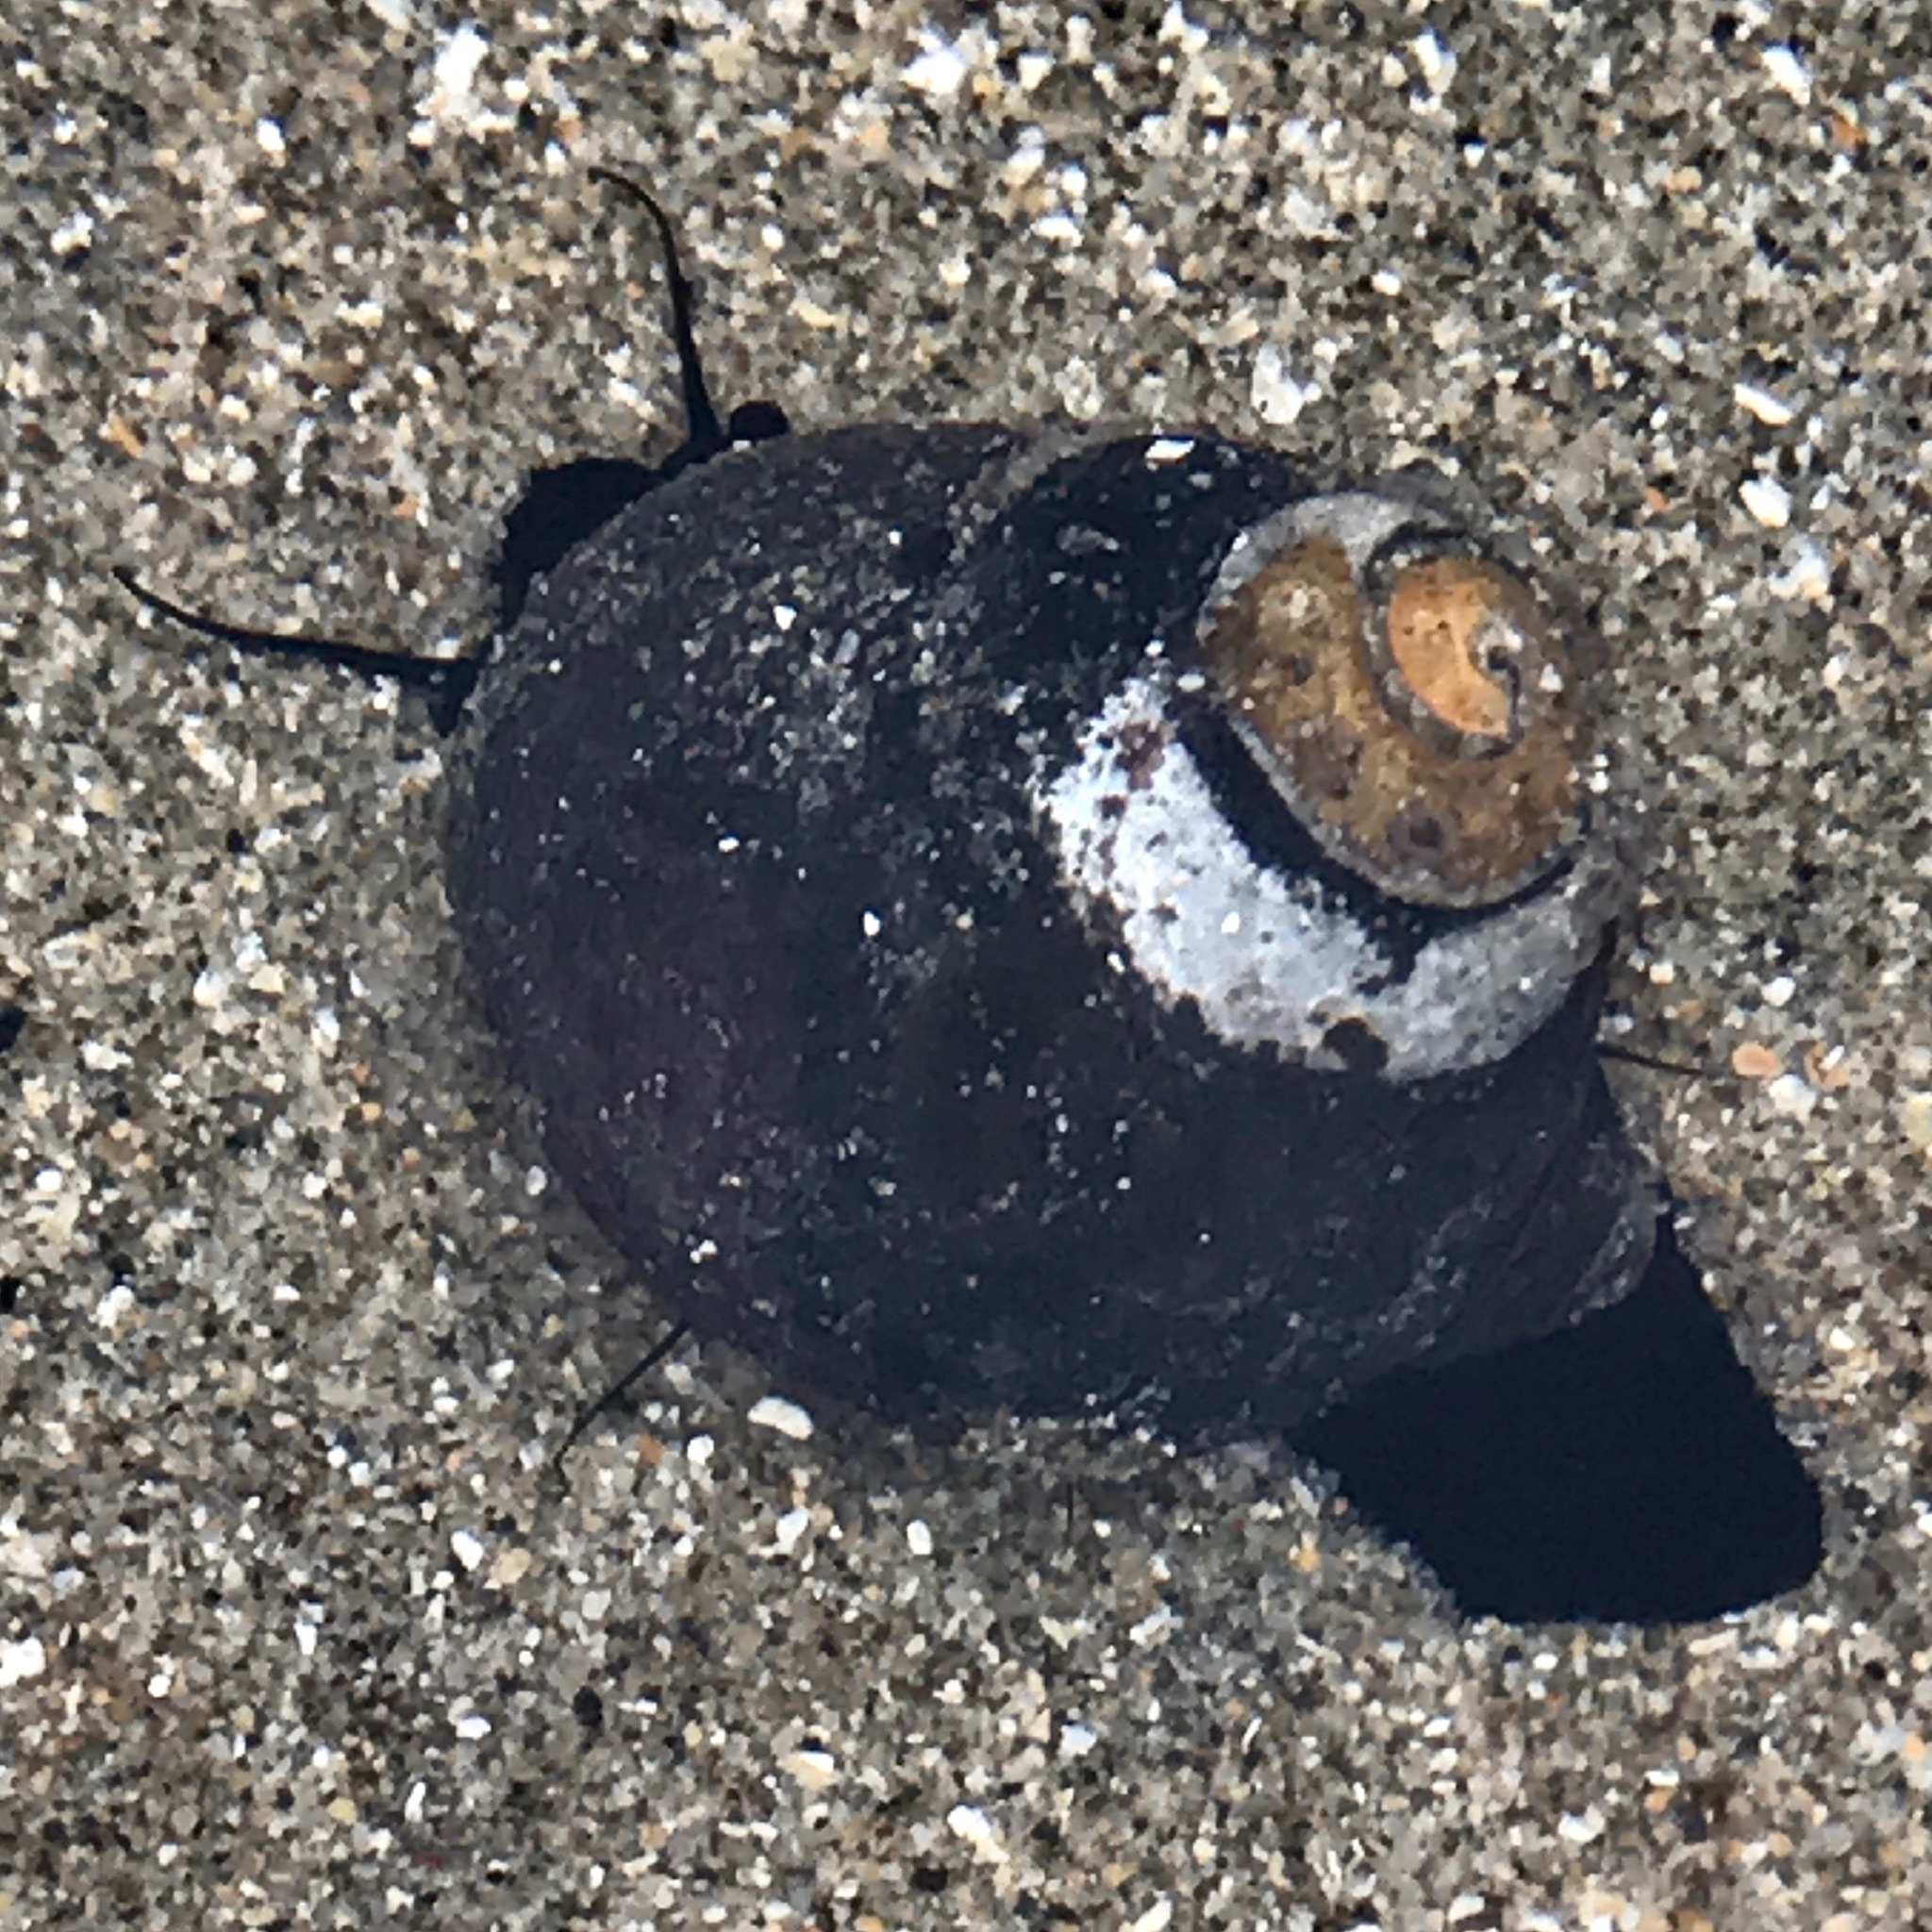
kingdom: Animalia
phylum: Mollusca
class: Gastropoda
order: Trochida
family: Tegulidae
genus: Tegula
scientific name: Tegula funebralis
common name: Black tegula
